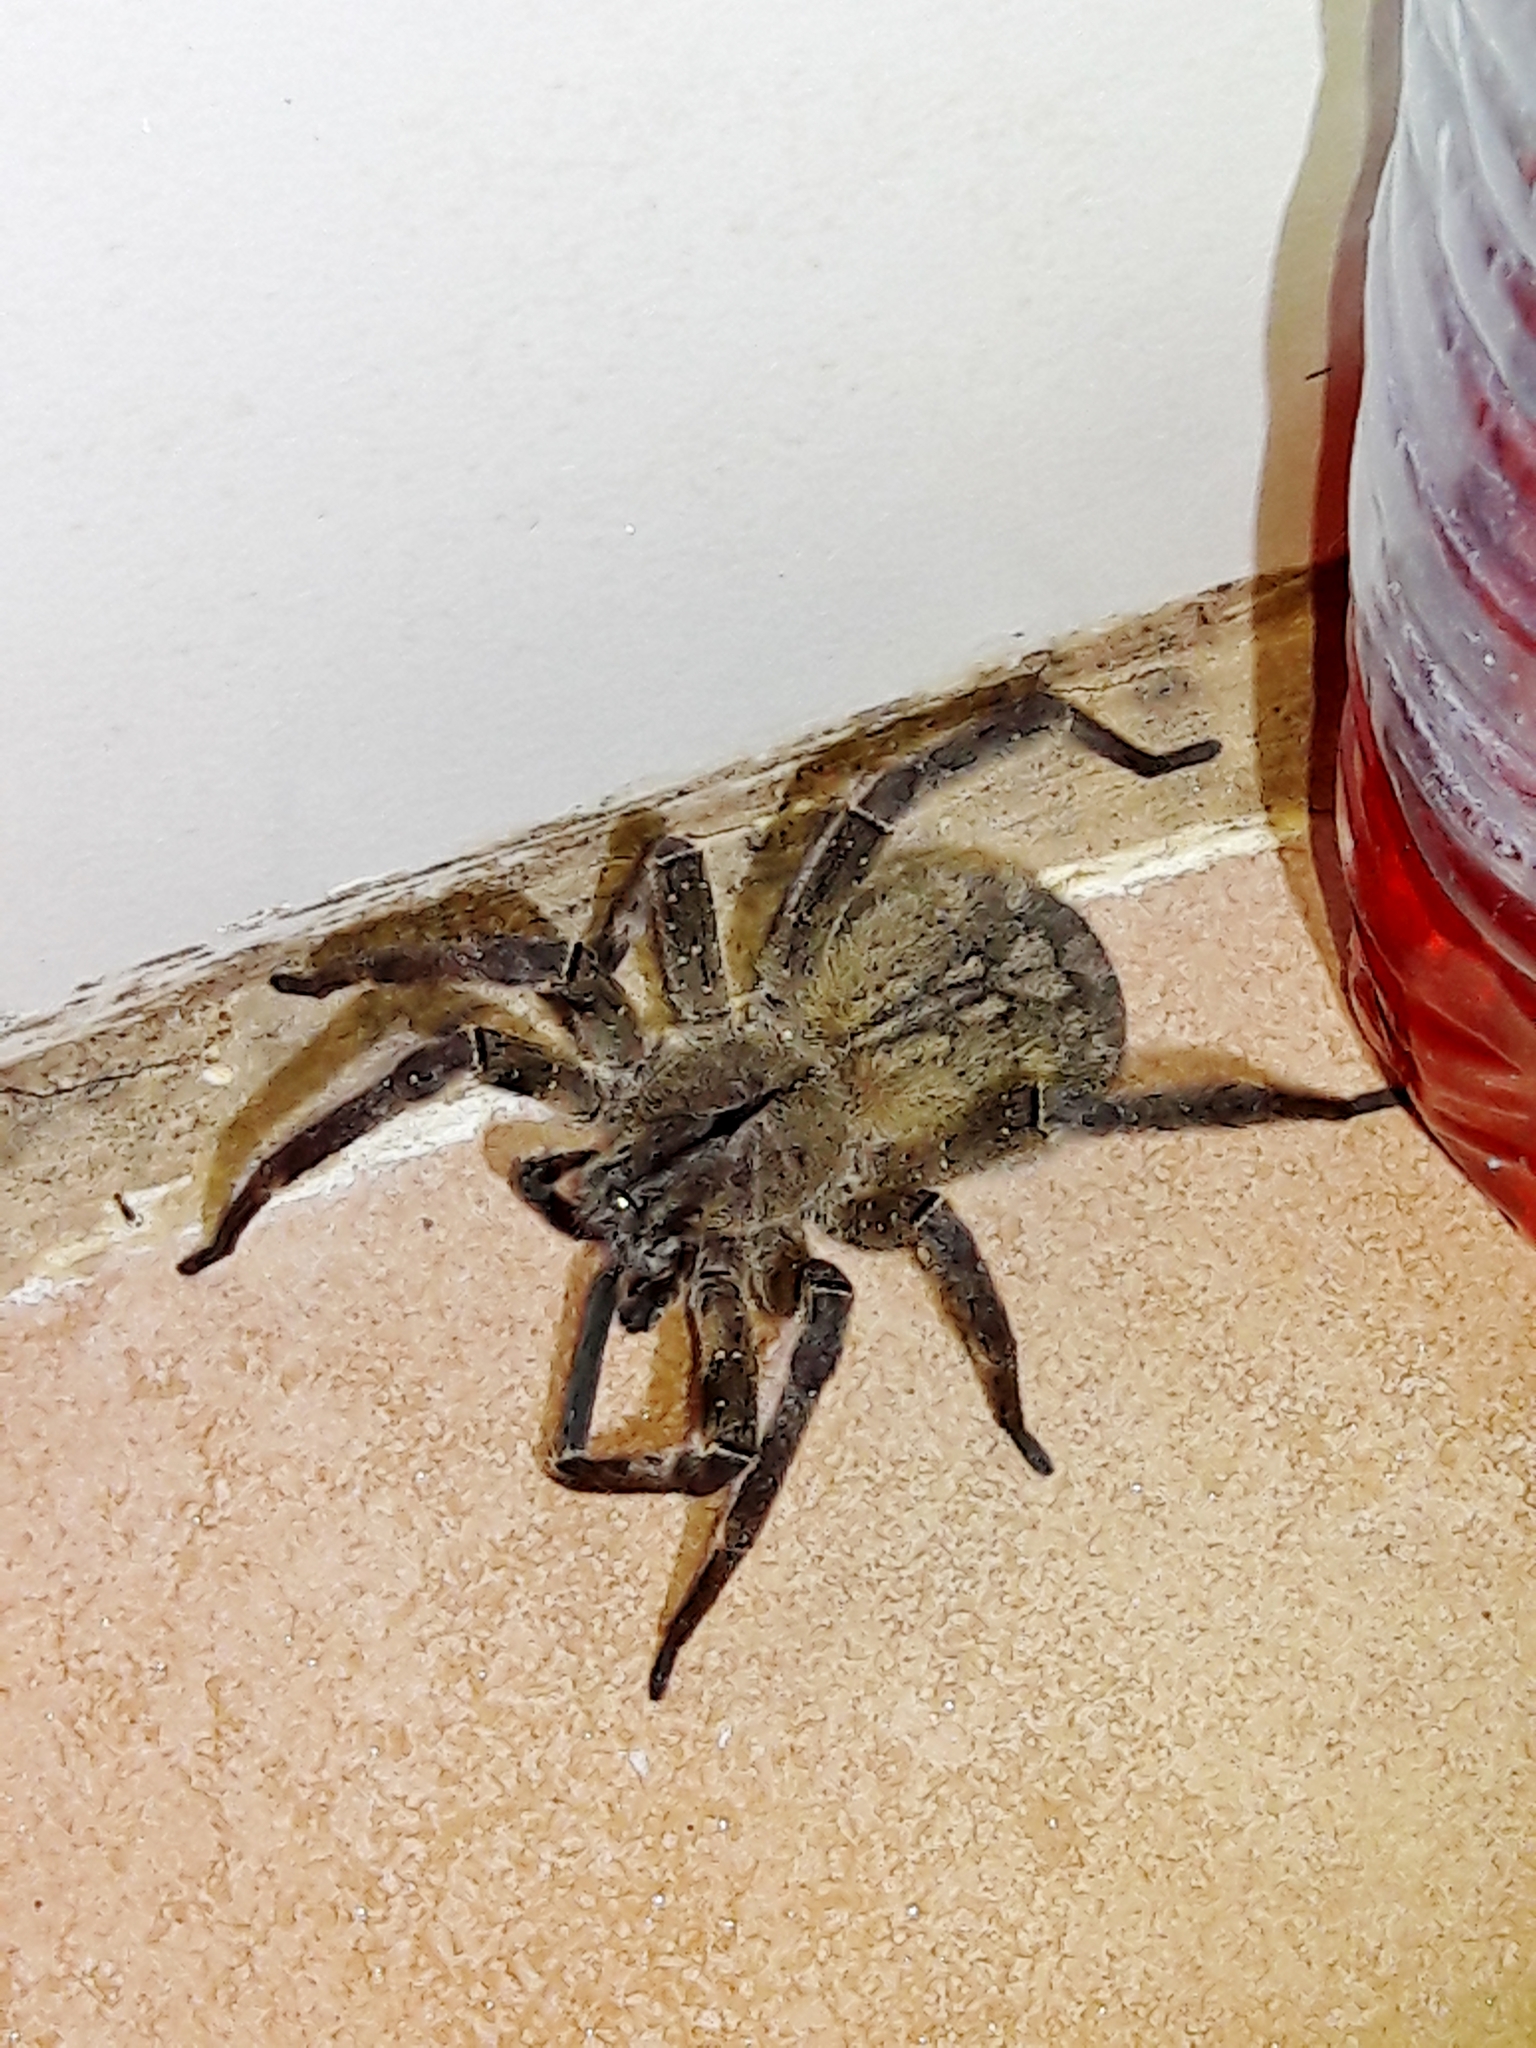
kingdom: Animalia
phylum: Arthropoda
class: Arachnida
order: Araneae
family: Ctenidae
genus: Phoneutria
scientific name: Phoneutria eickstedtae
